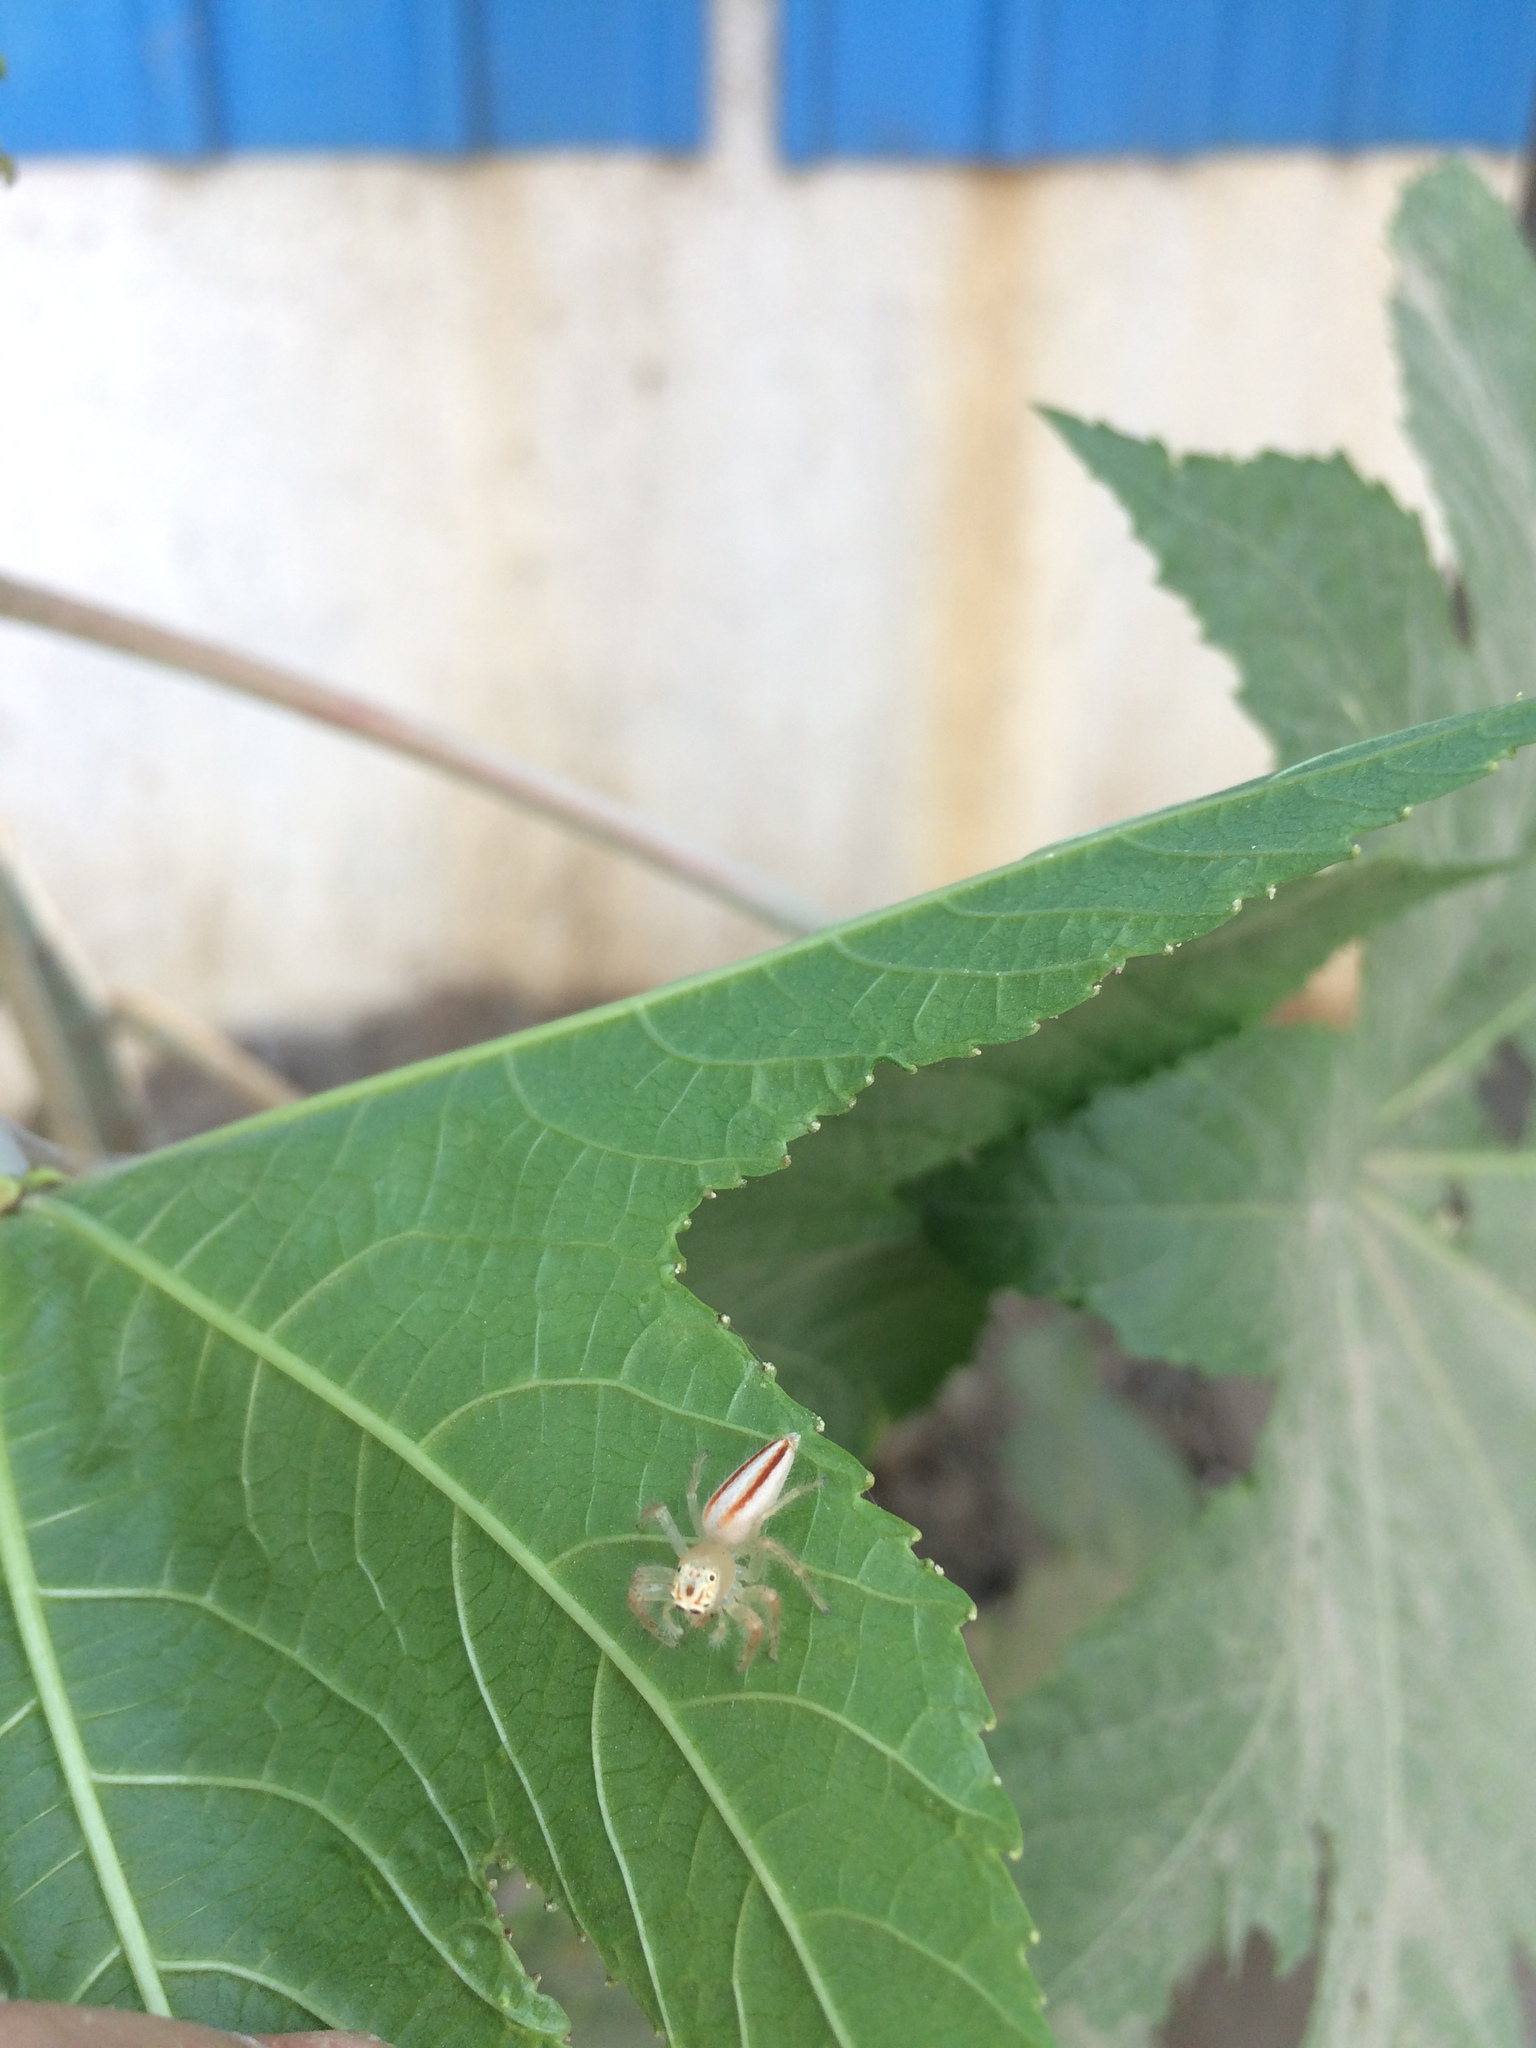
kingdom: Animalia
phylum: Arthropoda
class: Arachnida
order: Araneae
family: Salticidae
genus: Telamonia
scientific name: Telamonia dimidiata
